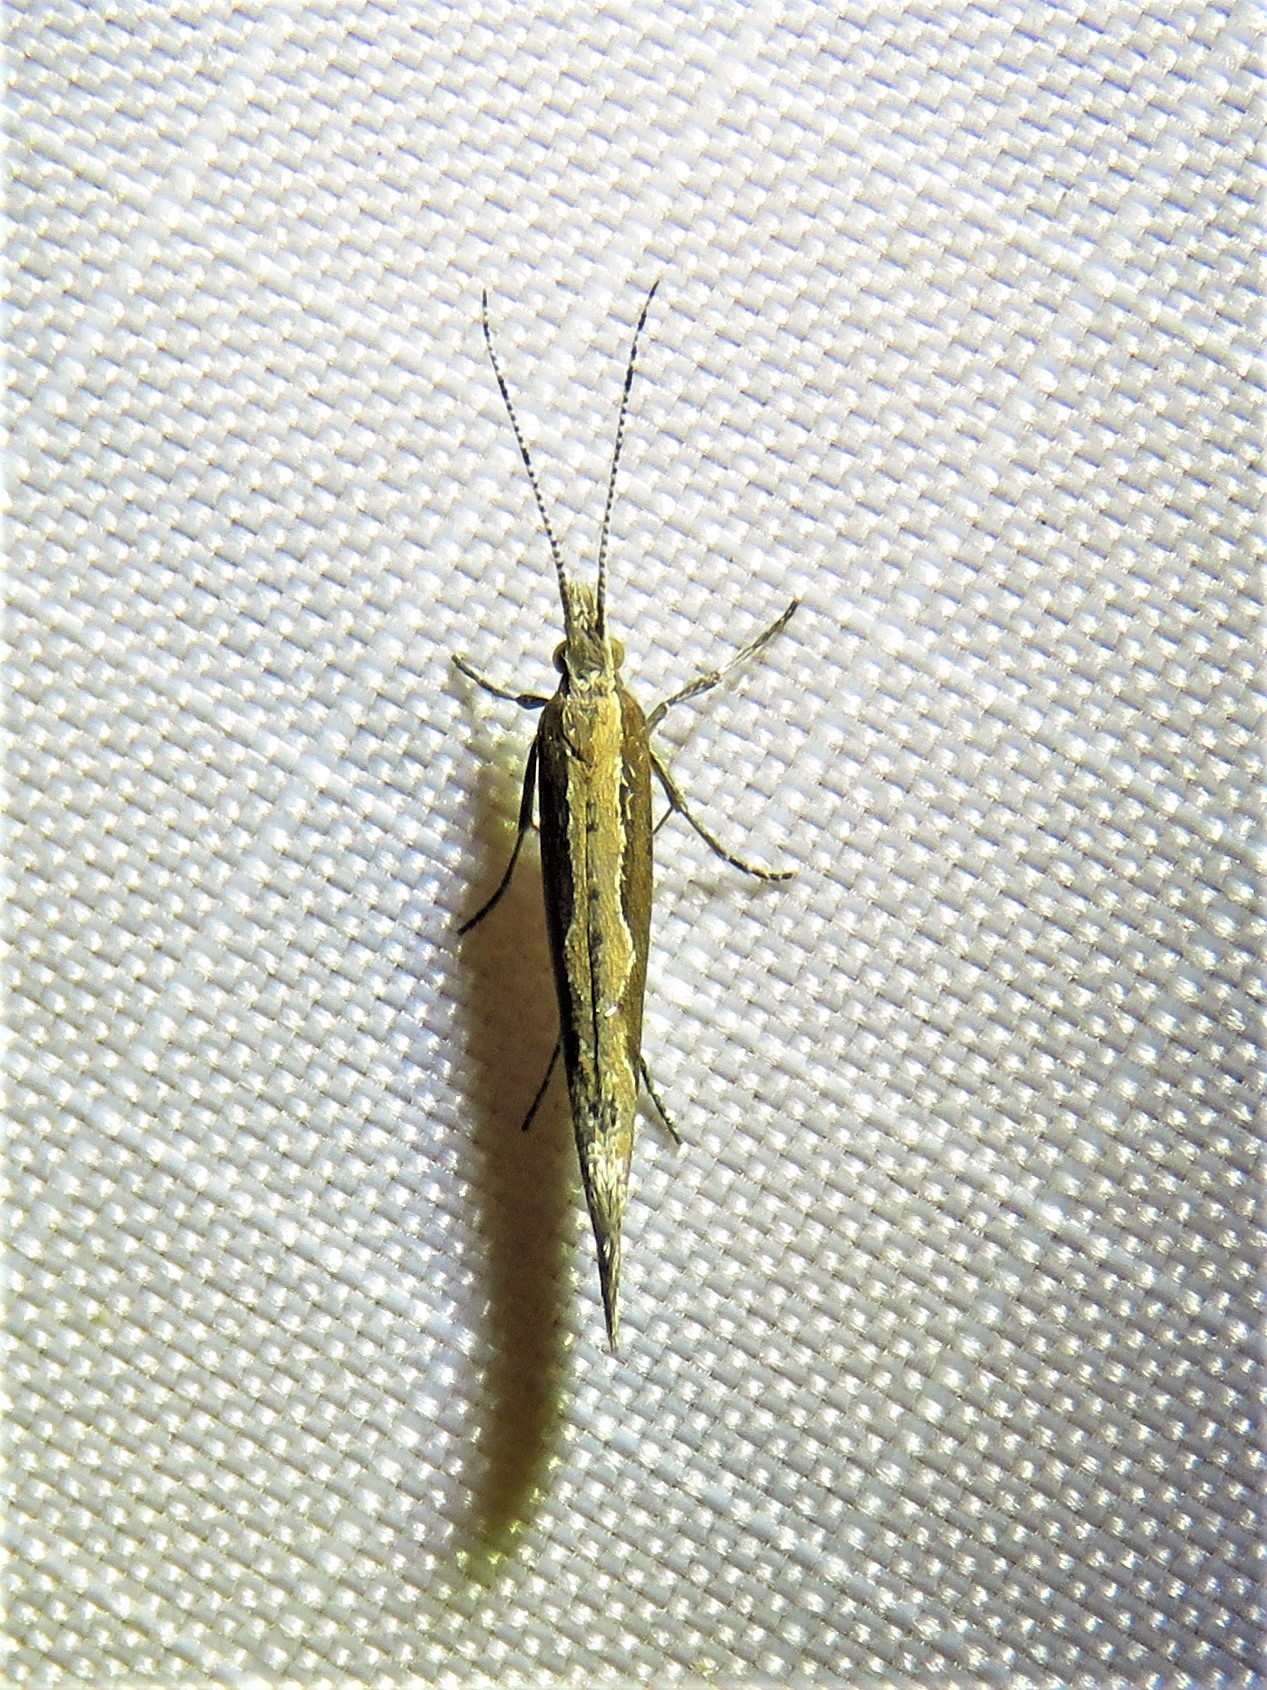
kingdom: Animalia
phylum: Arthropoda
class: Insecta
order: Lepidoptera
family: Plutellidae
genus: Plutella
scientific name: Plutella xylostella
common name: Diamond-back moth
